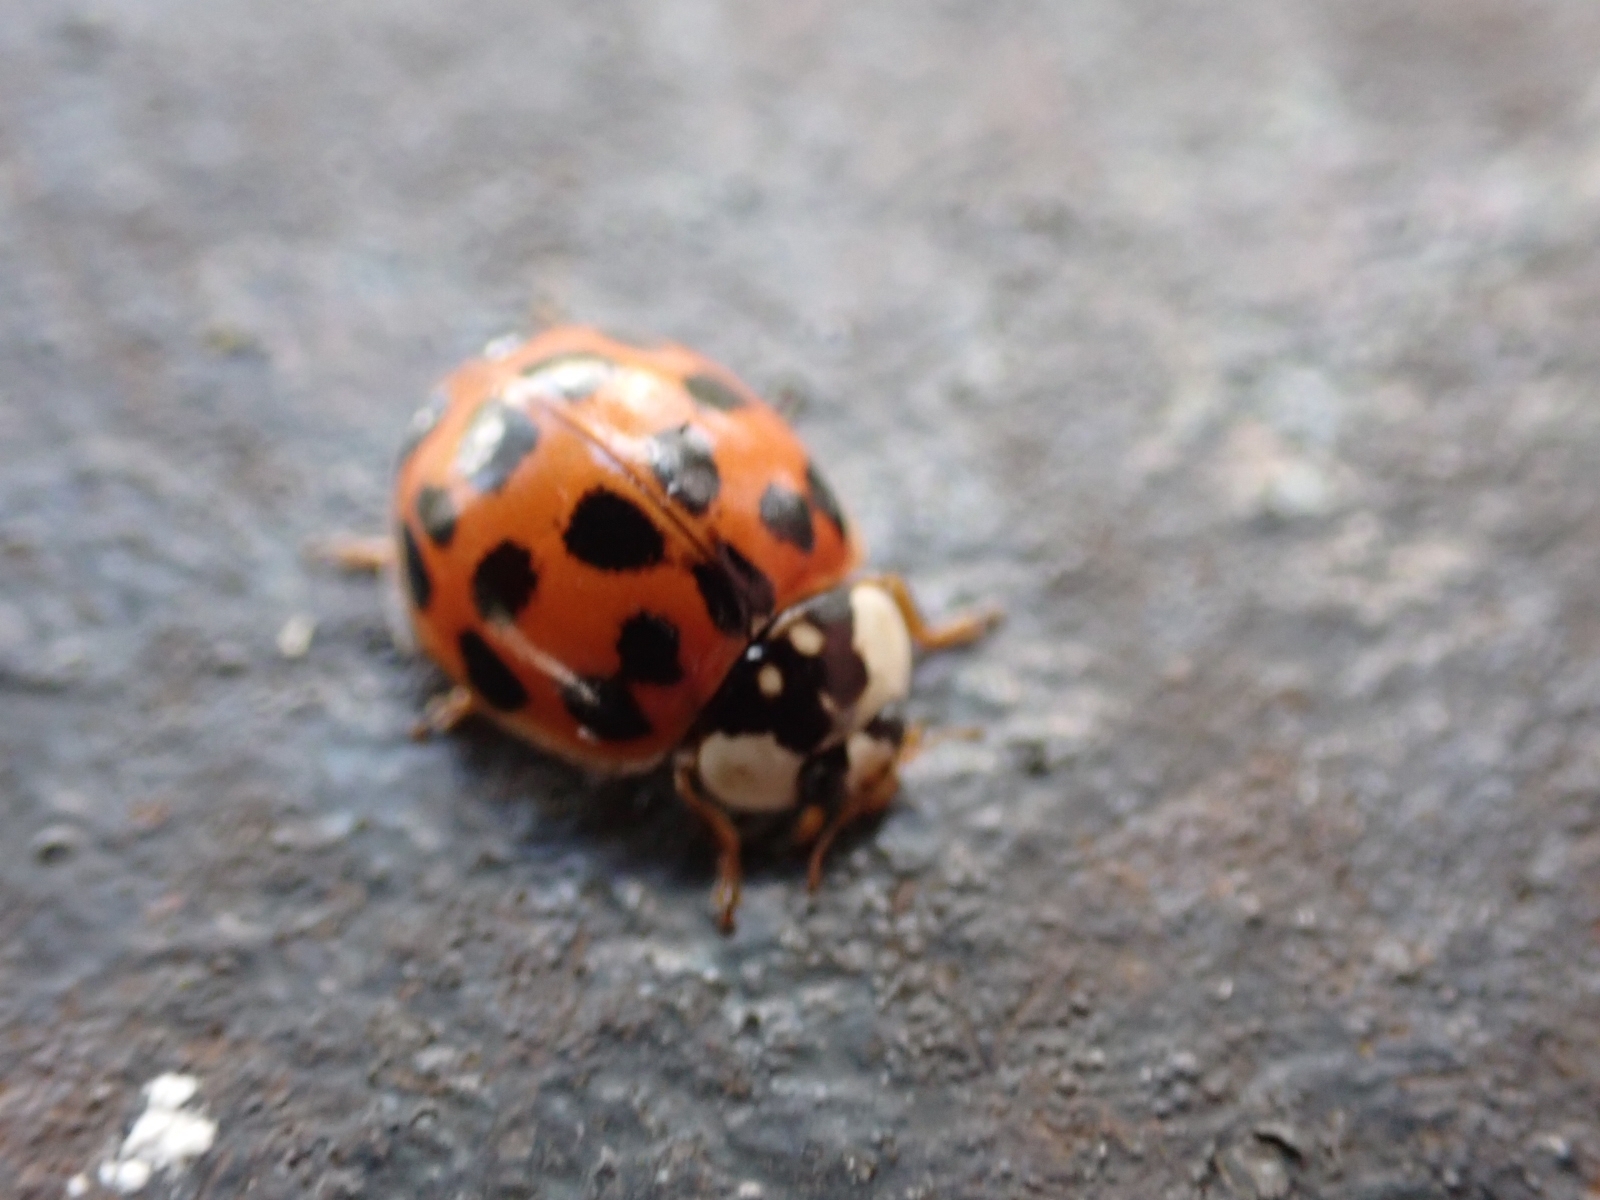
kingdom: Animalia
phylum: Arthropoda
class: Insecta
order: Coleoptera
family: Coccinellidae
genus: Harmonia
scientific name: Harmonia axyridis
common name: Harlequin ladybird
